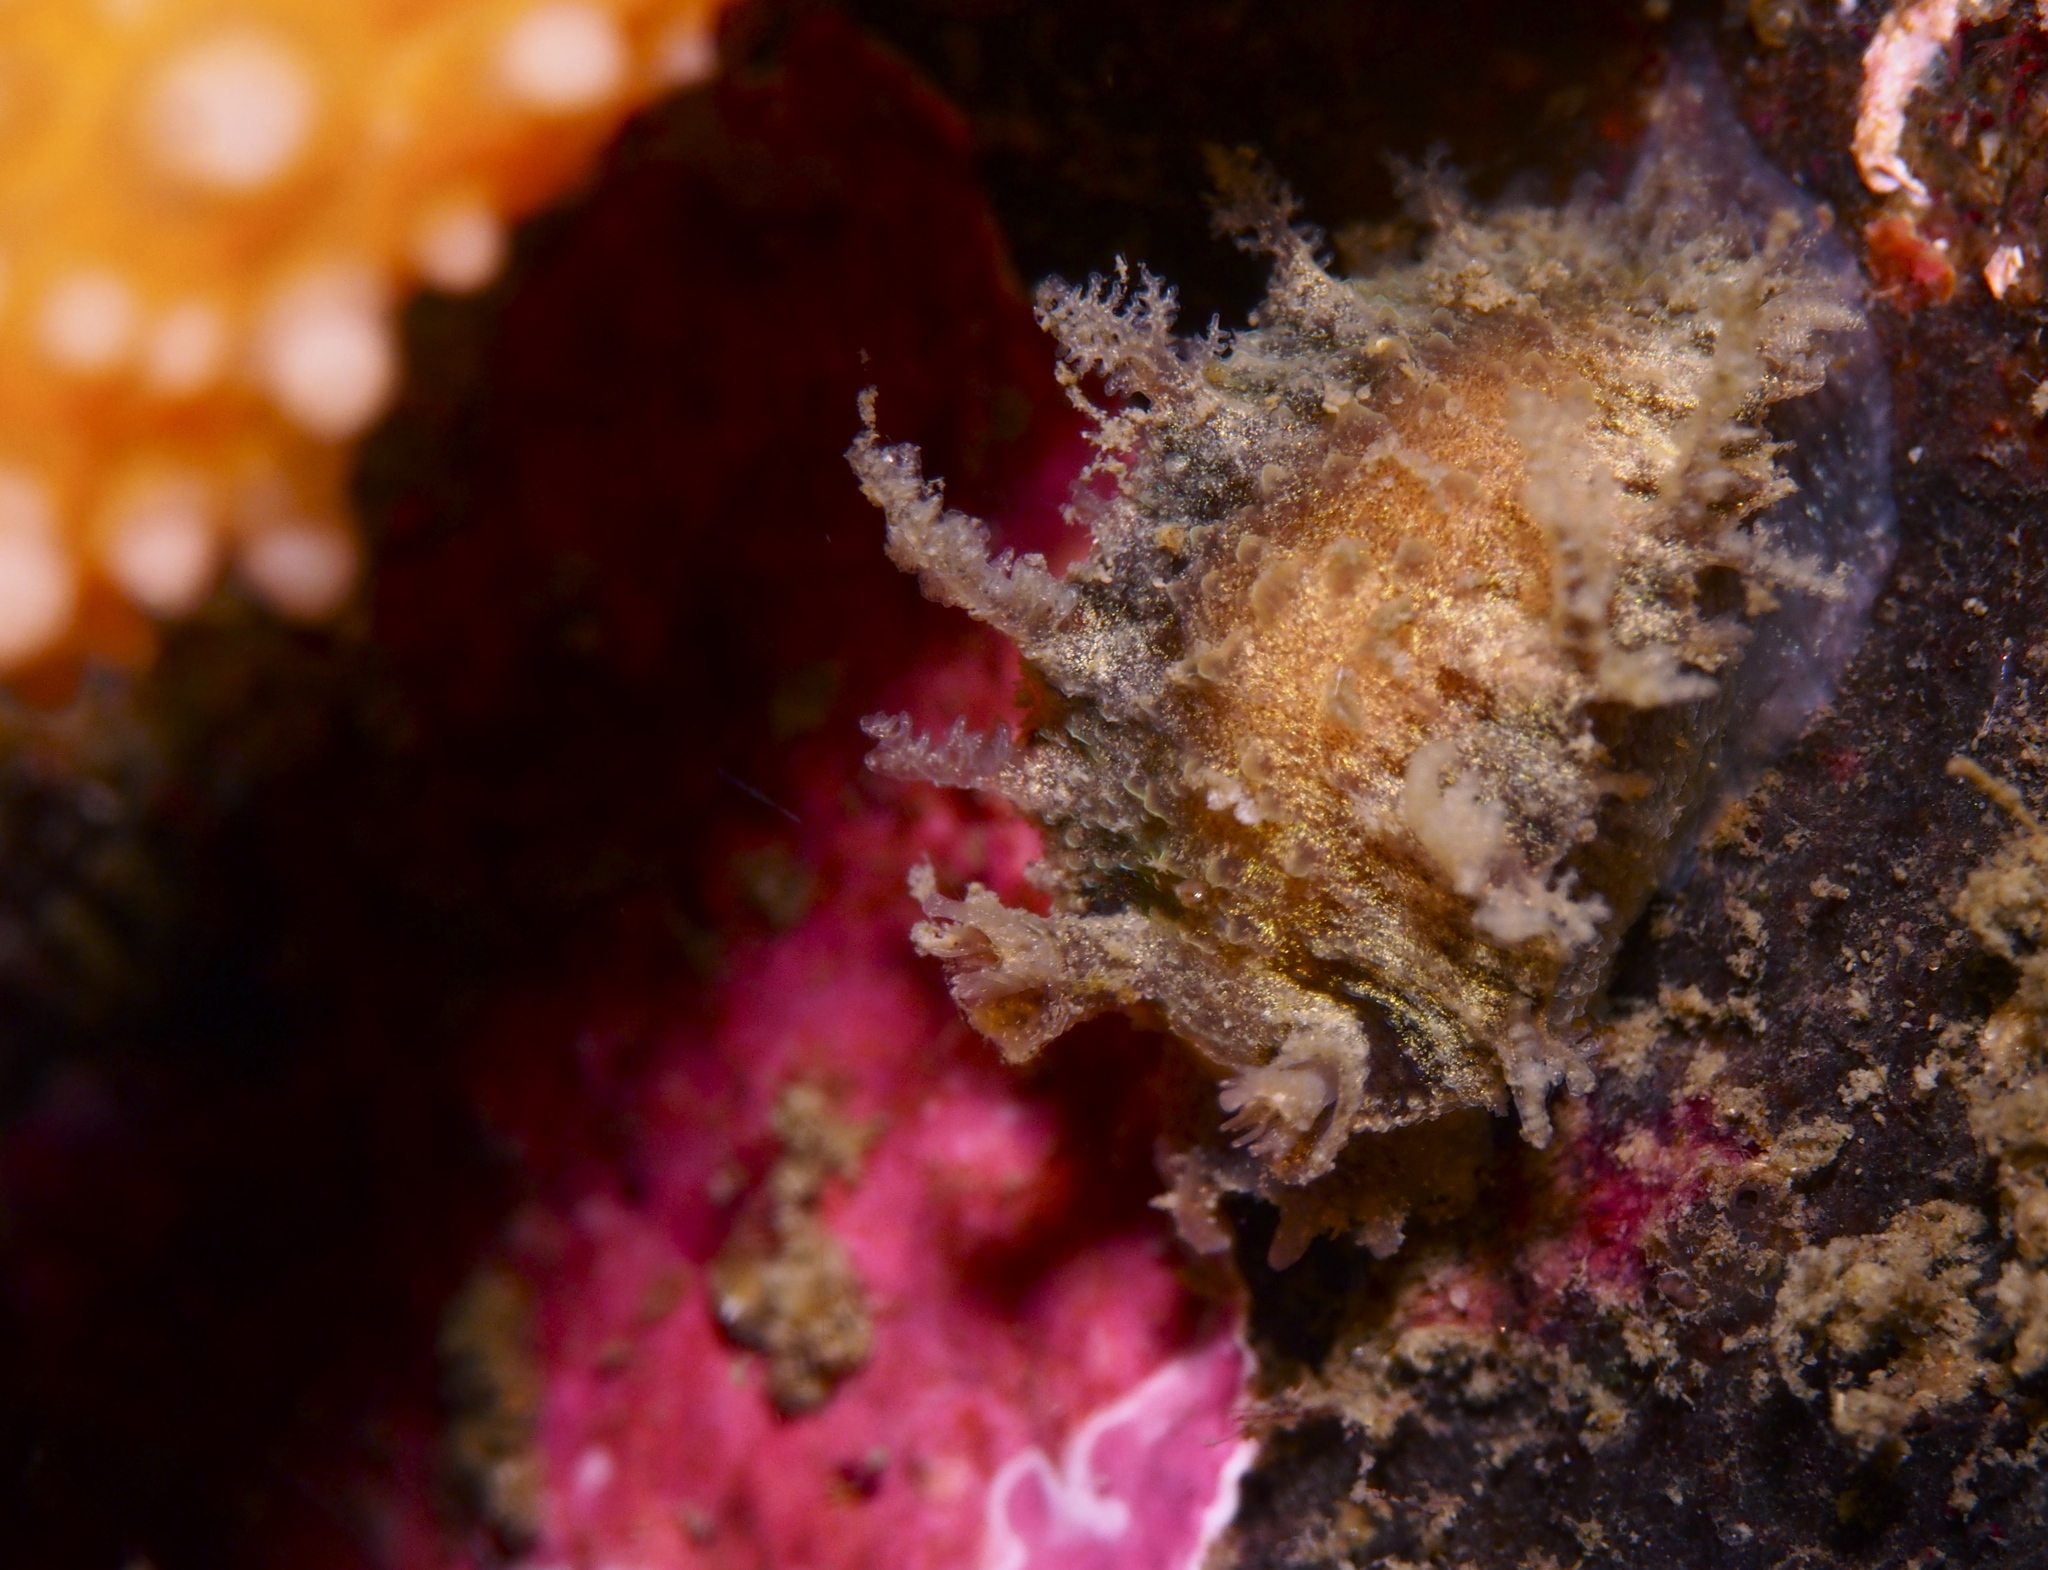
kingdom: Animalia
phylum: Mollusca
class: Gastropoda
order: Nudibranchia
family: Tritoniidae
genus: Duvaucelia
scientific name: Duvaucelia plebeia
